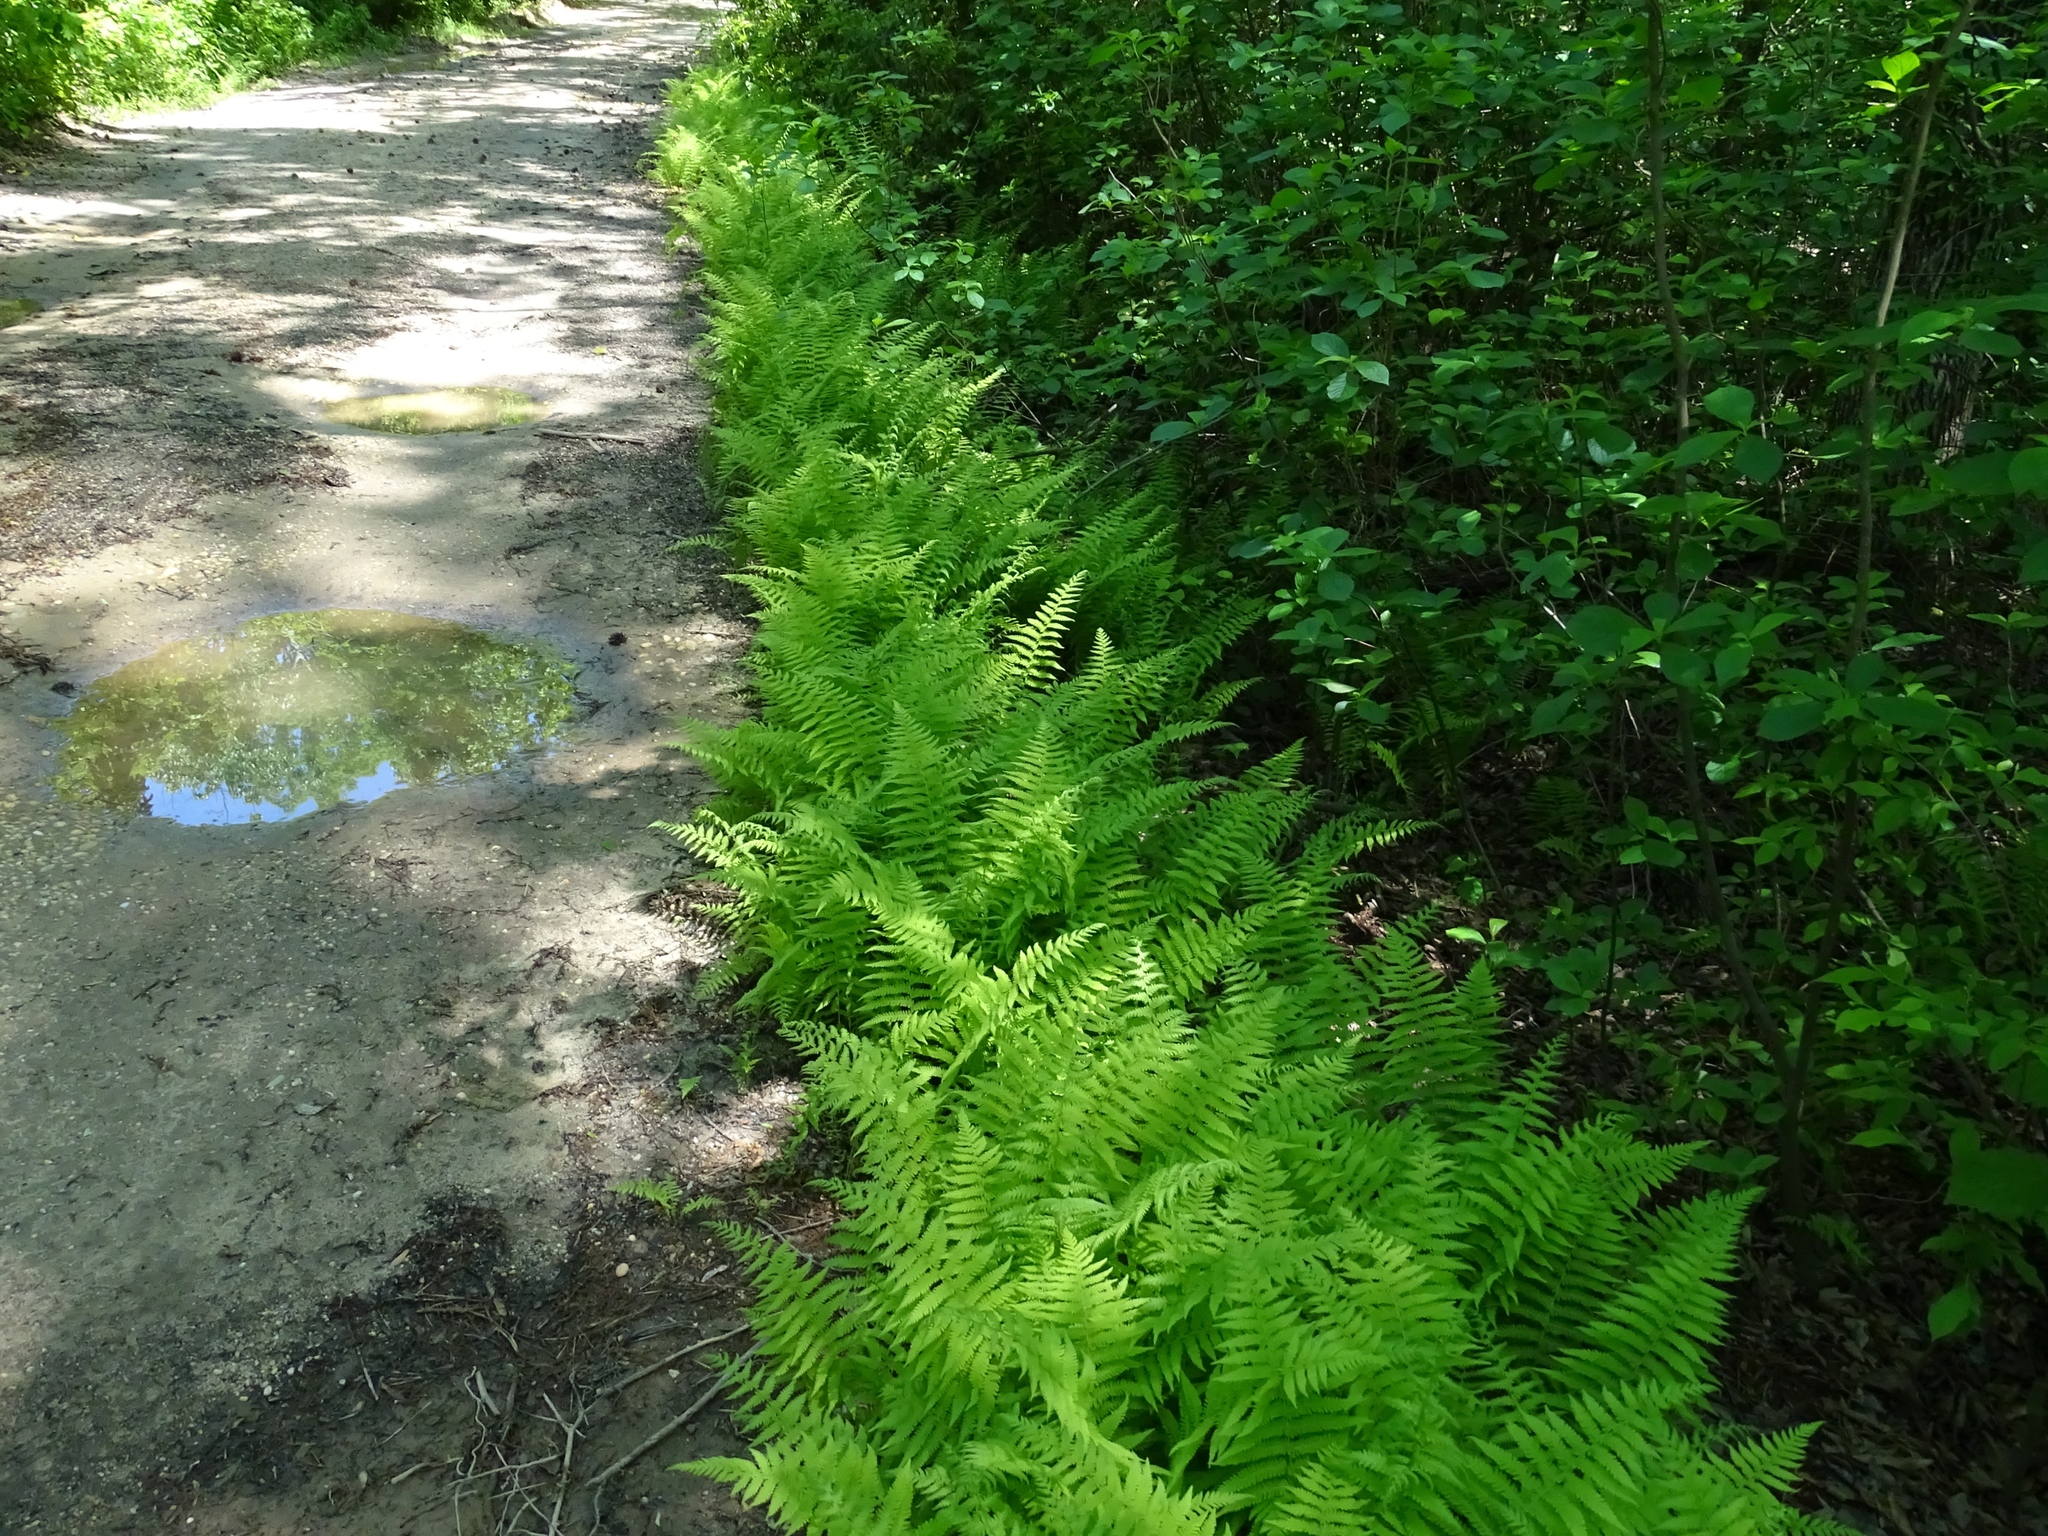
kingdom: Plantae
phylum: Tracheophyta
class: Polypodiopsida
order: Polypodiales
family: Thelypteridaceae
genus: Amauropelta
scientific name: Amauropelta noveboracensis
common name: New york fern
